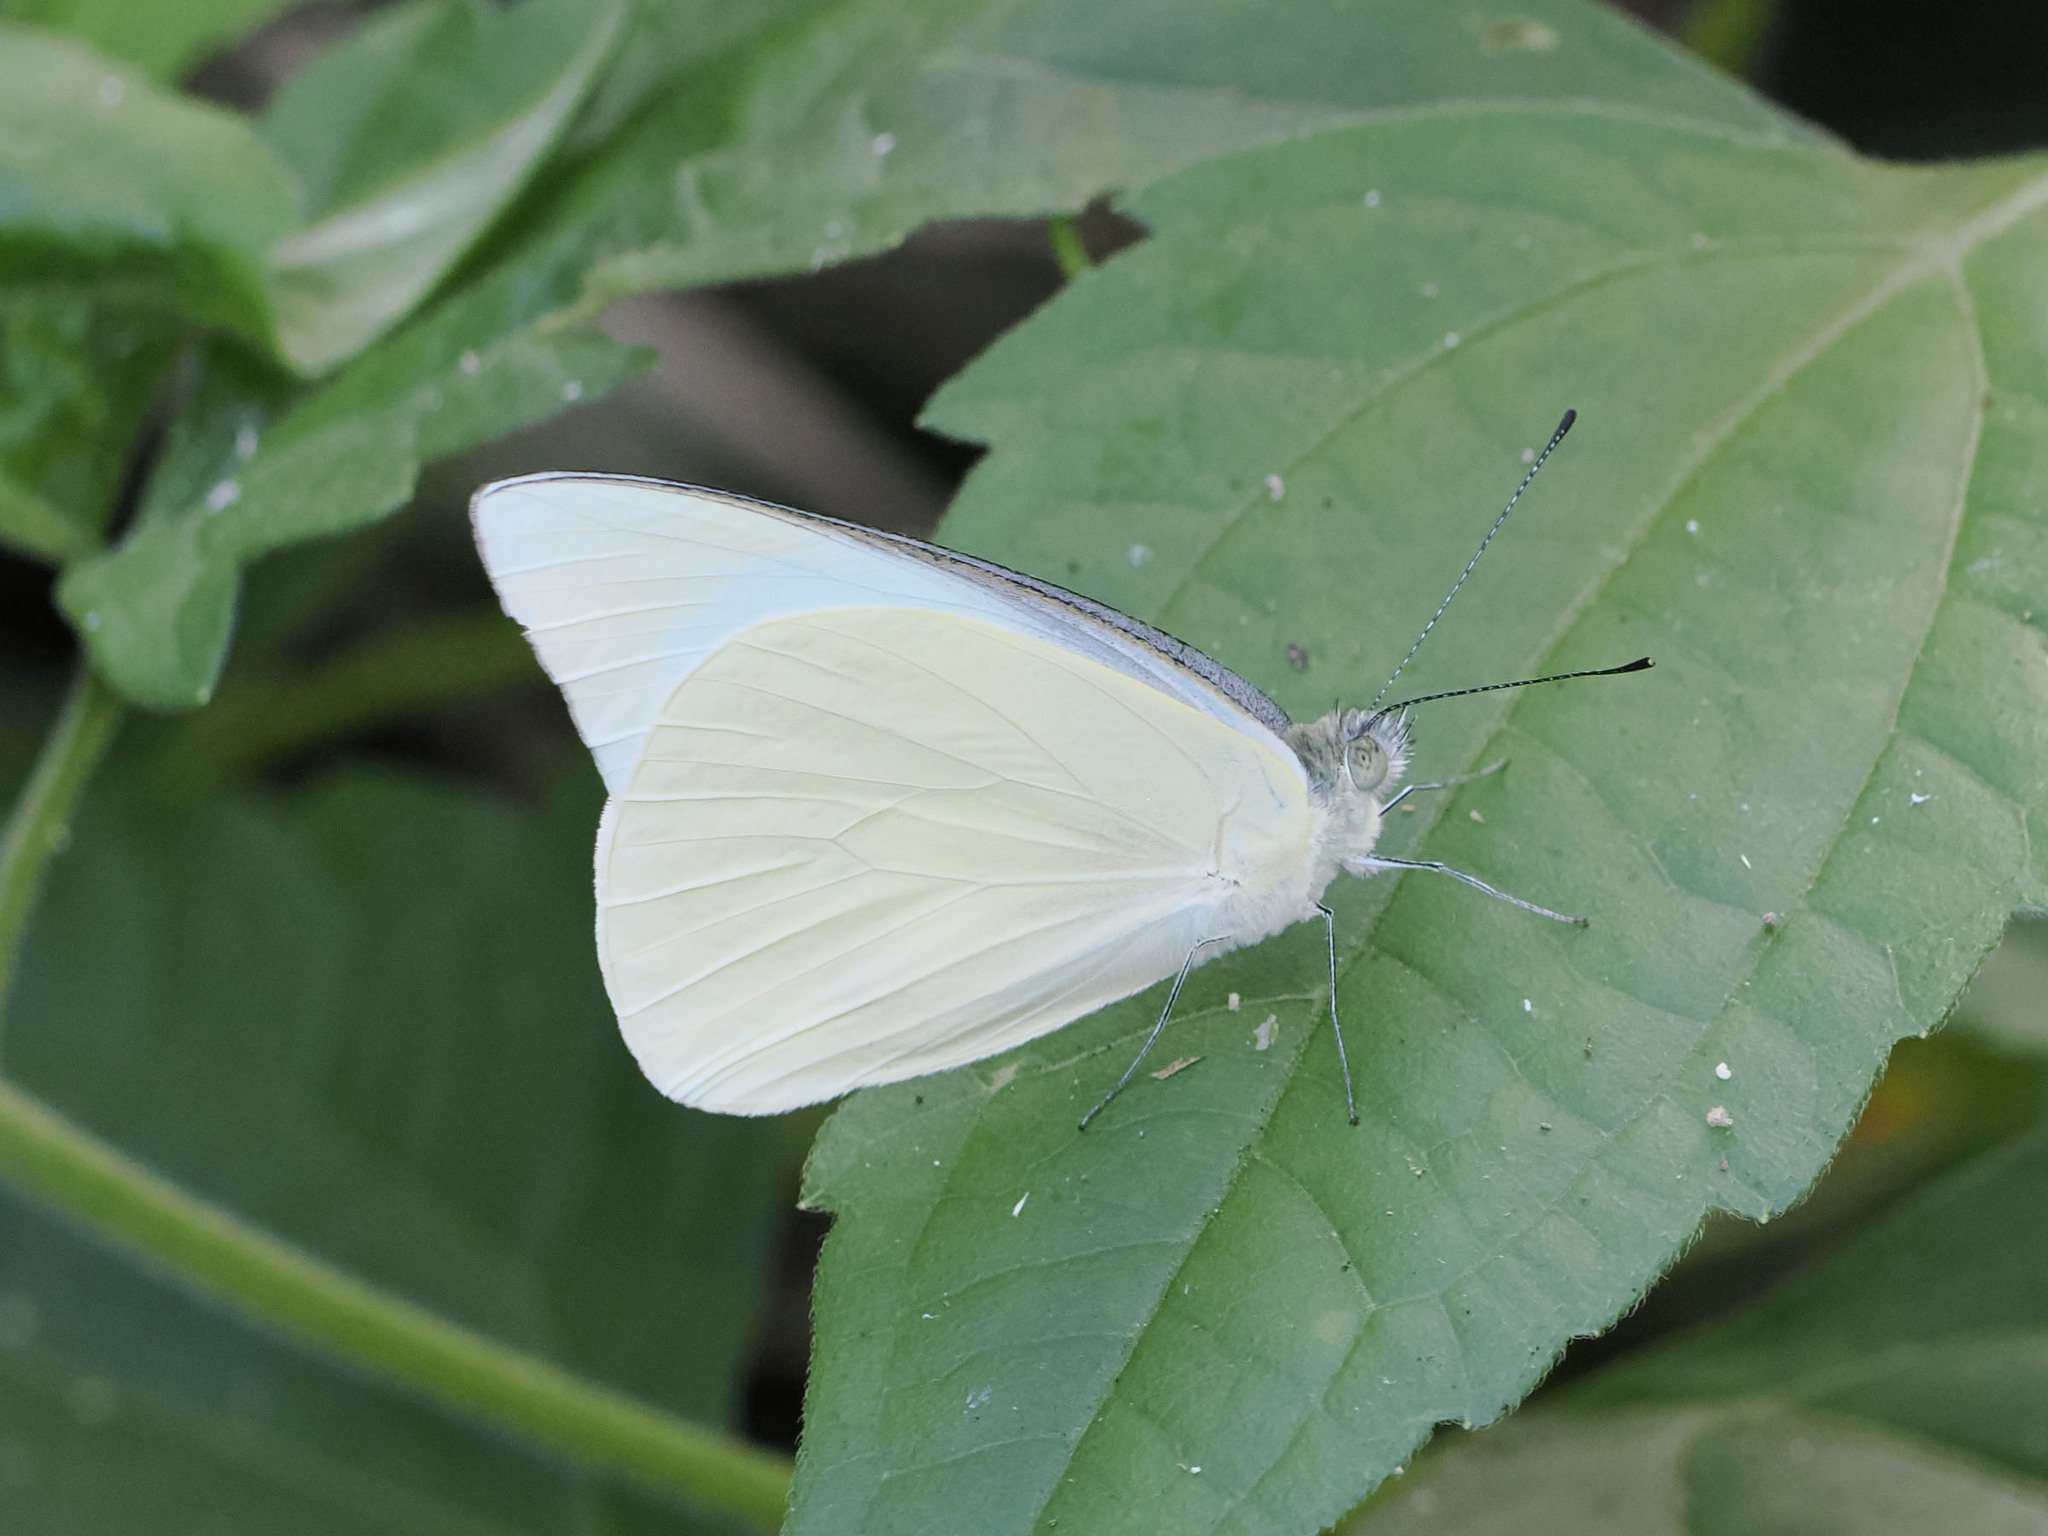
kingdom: Animalia
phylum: Arthropoda
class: Insecta
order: Lepidoptera
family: Pieridae
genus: Appias
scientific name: Appias albina
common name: Common albatross
